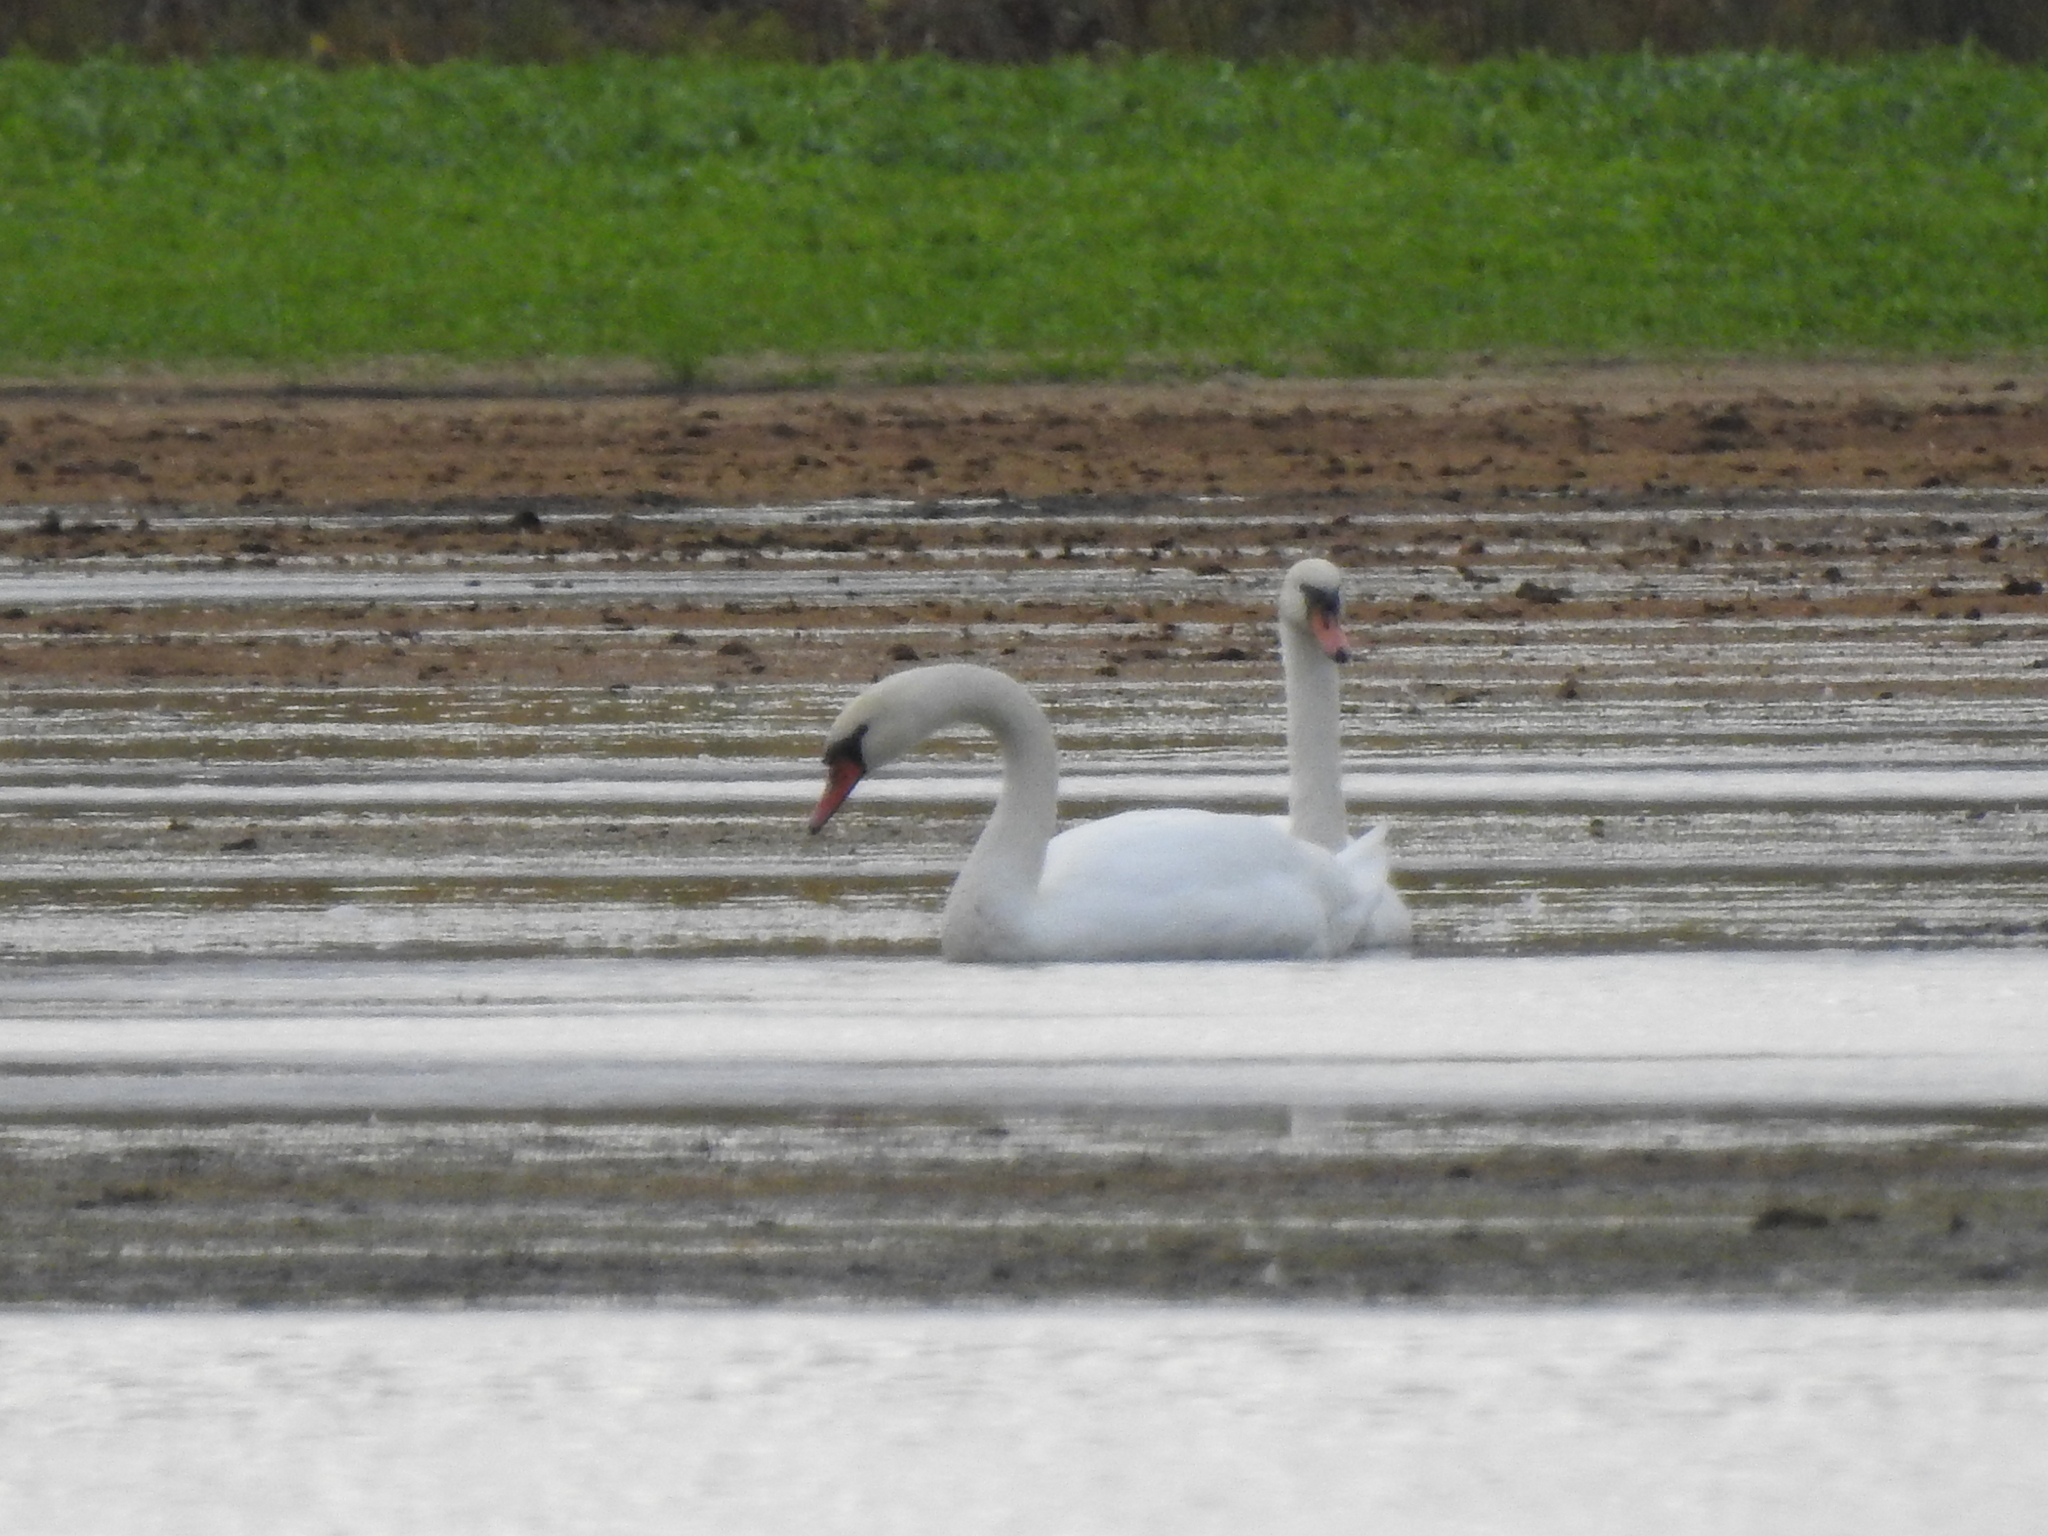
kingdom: Animalia
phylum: Chordata
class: Aves
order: Anseriformes
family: Anatidae
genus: Cygnus
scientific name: Cygnus olor
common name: Mute swan
